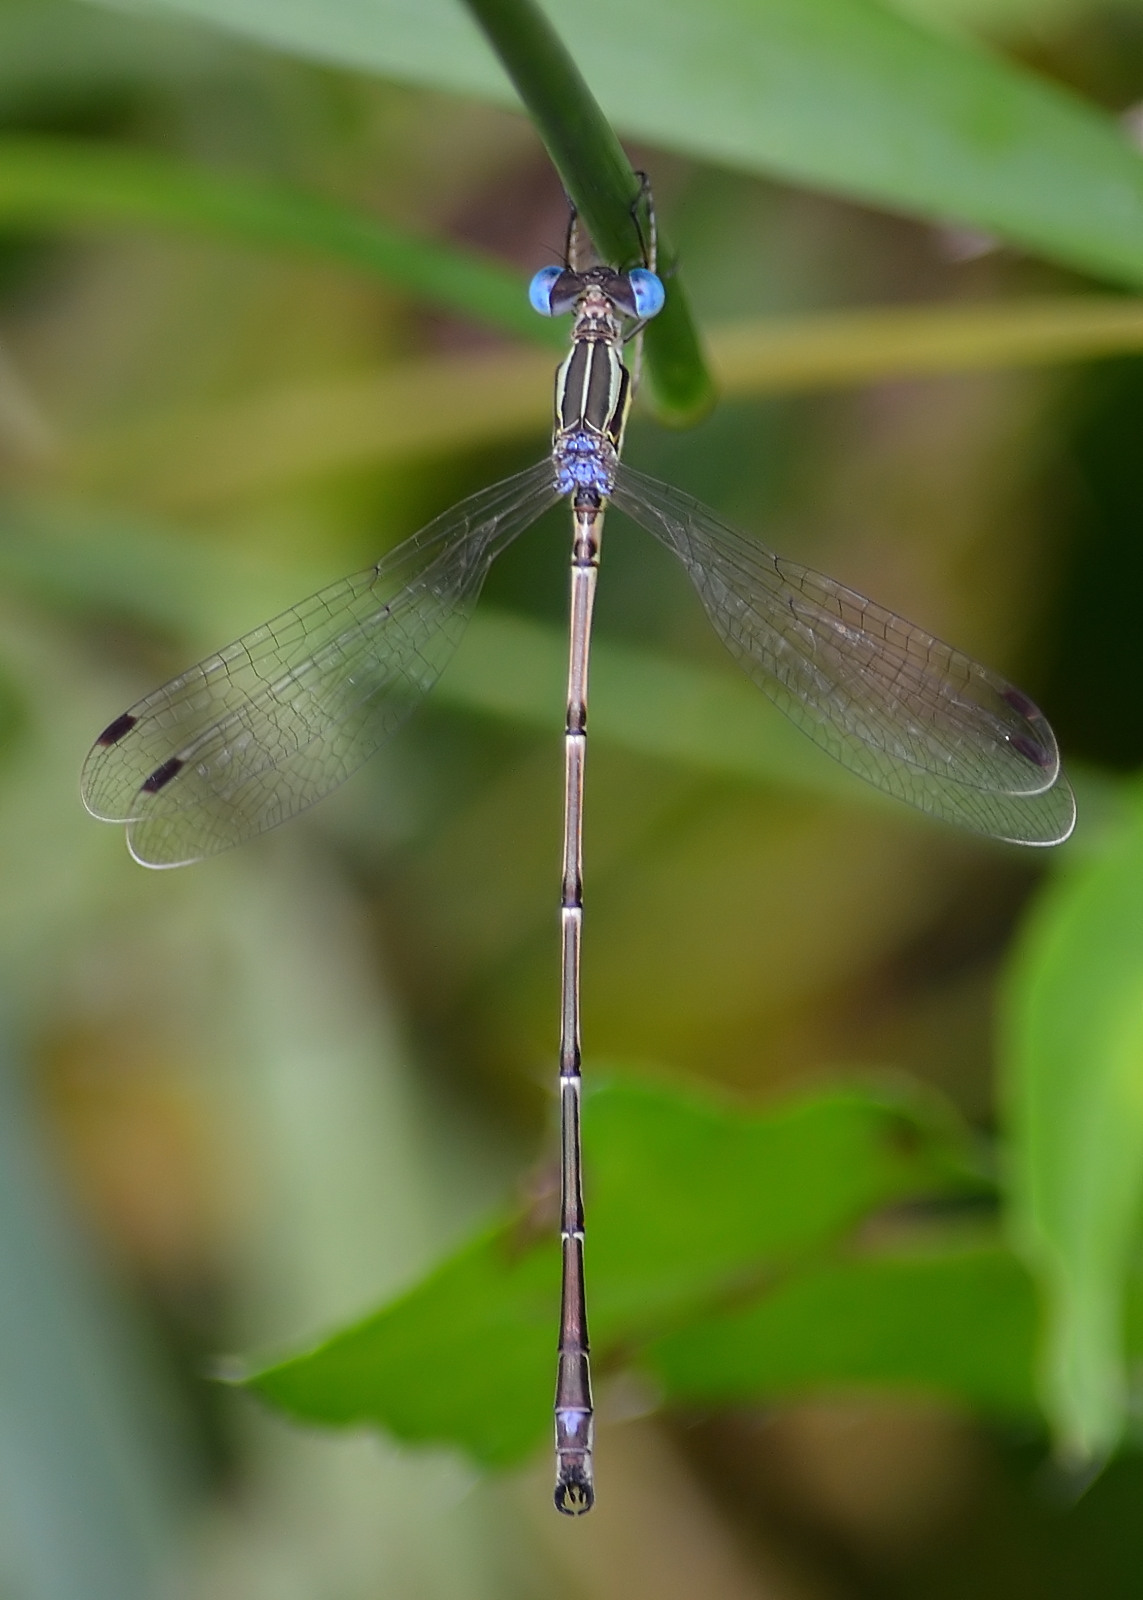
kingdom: Animalia
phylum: Arthropoda
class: Insecta
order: Odonata
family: Lestidae
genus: Lestes
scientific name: Lestes rectangularis
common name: Slender spreadwing
